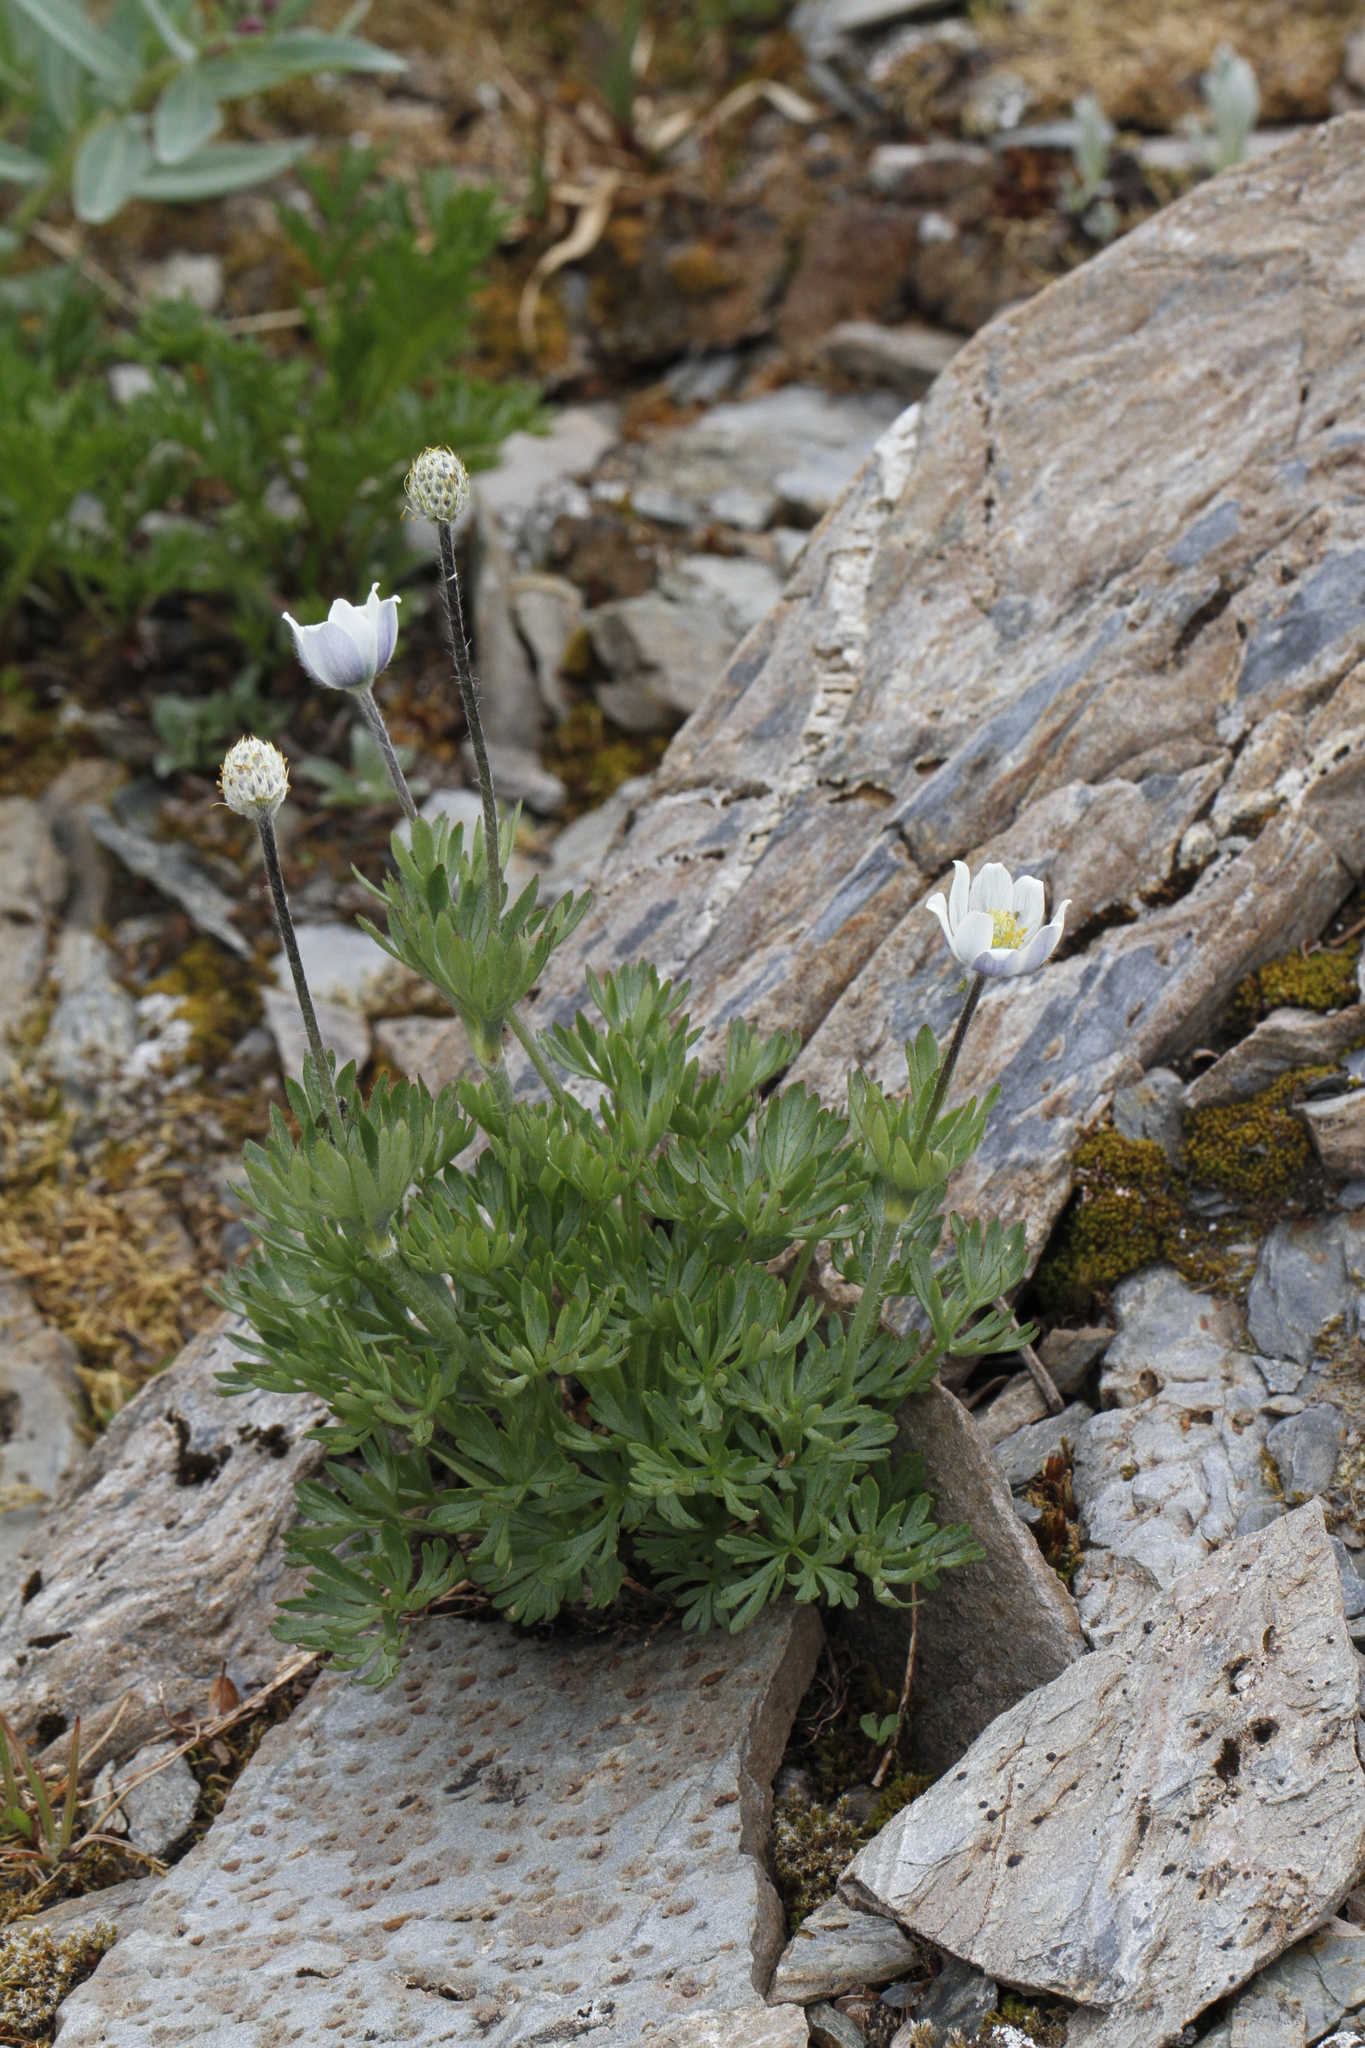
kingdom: Plantae
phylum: Tracheophyta
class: Magnoliopsida
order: Ranunculales
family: Ranunculaceae
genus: Anemone
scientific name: Anemone lithophila
